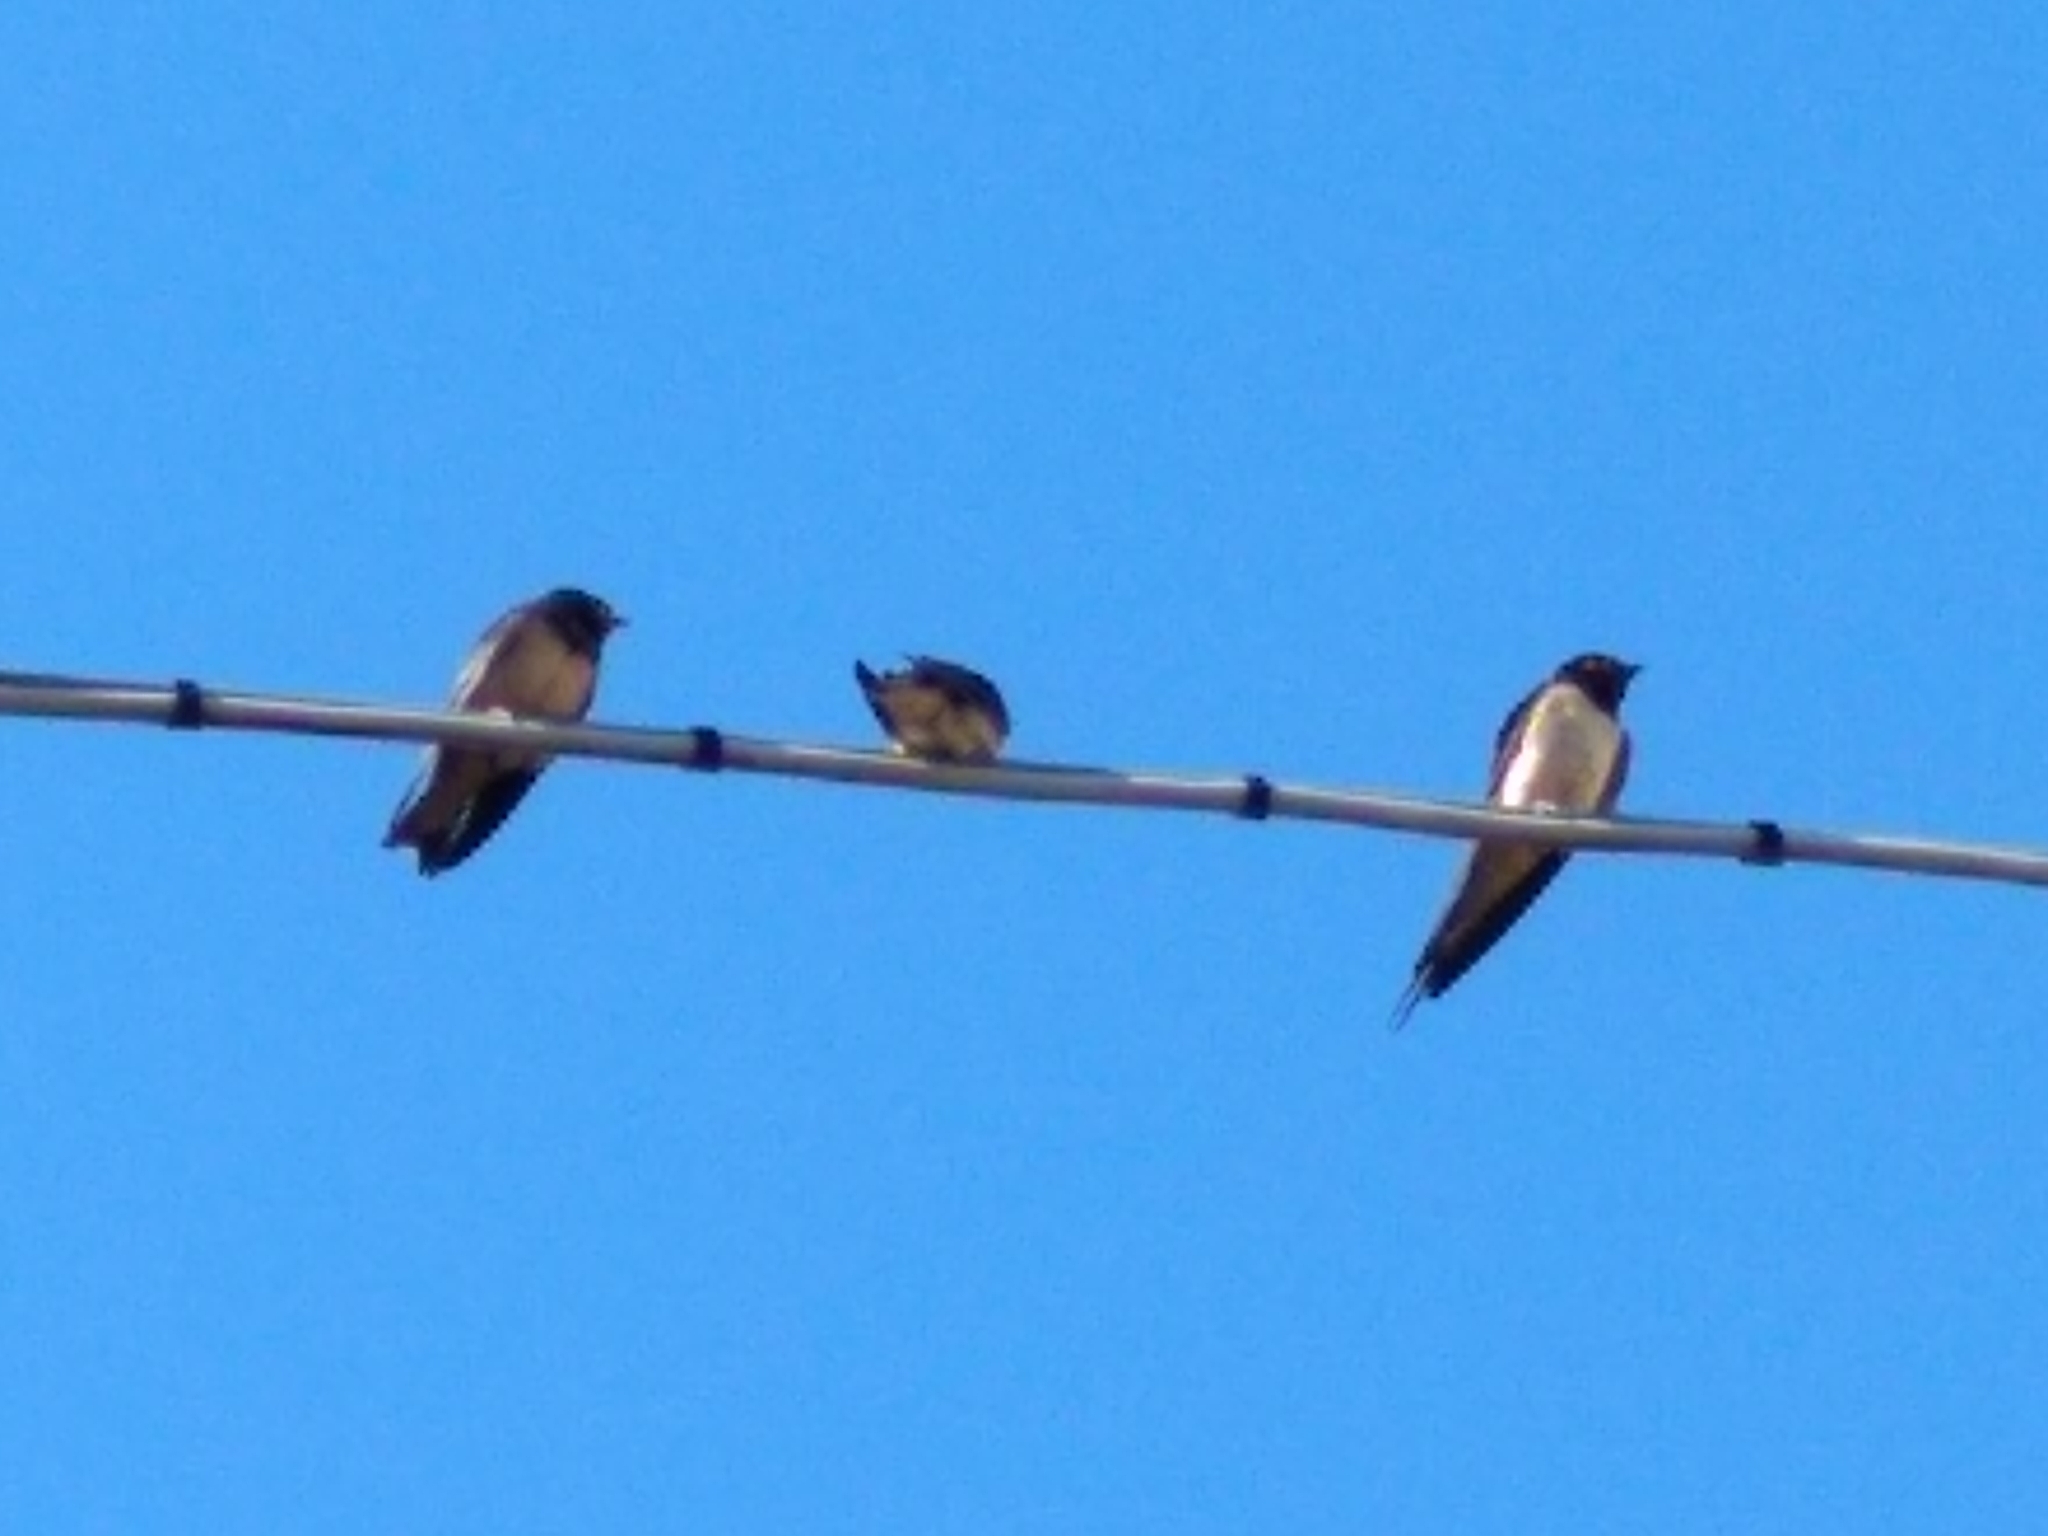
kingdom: Animalia
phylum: Chordata
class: Aves
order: Passeriformes
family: Hirundinidae
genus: Hirundo
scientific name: Hirundo rustica
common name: Barn swallow
